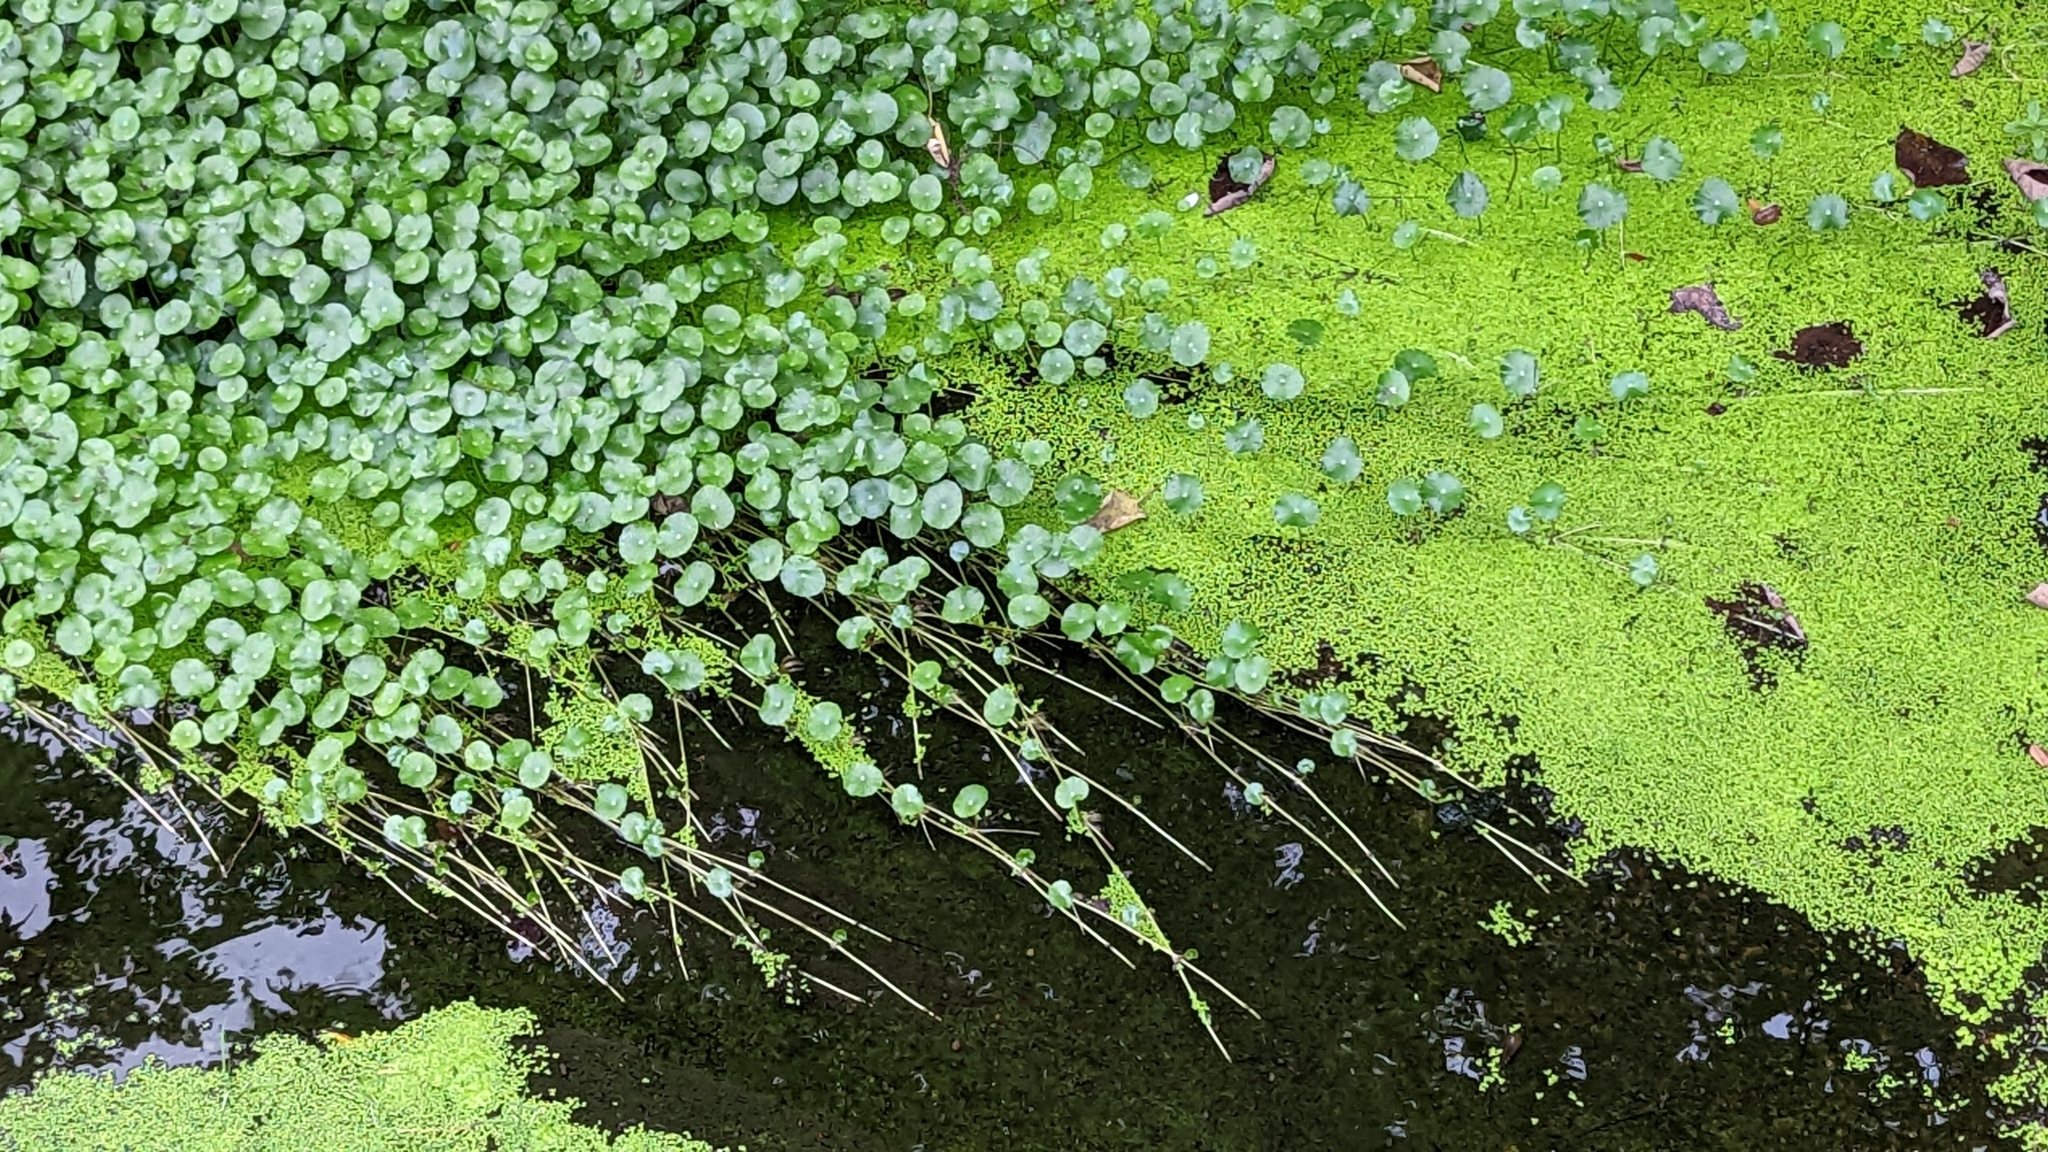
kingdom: Plantae
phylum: Tracheophyta
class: Liliopsida
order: Alismatales
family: Araceae
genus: Lemna
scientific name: Lemna aequinoctialis
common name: Duckweed
